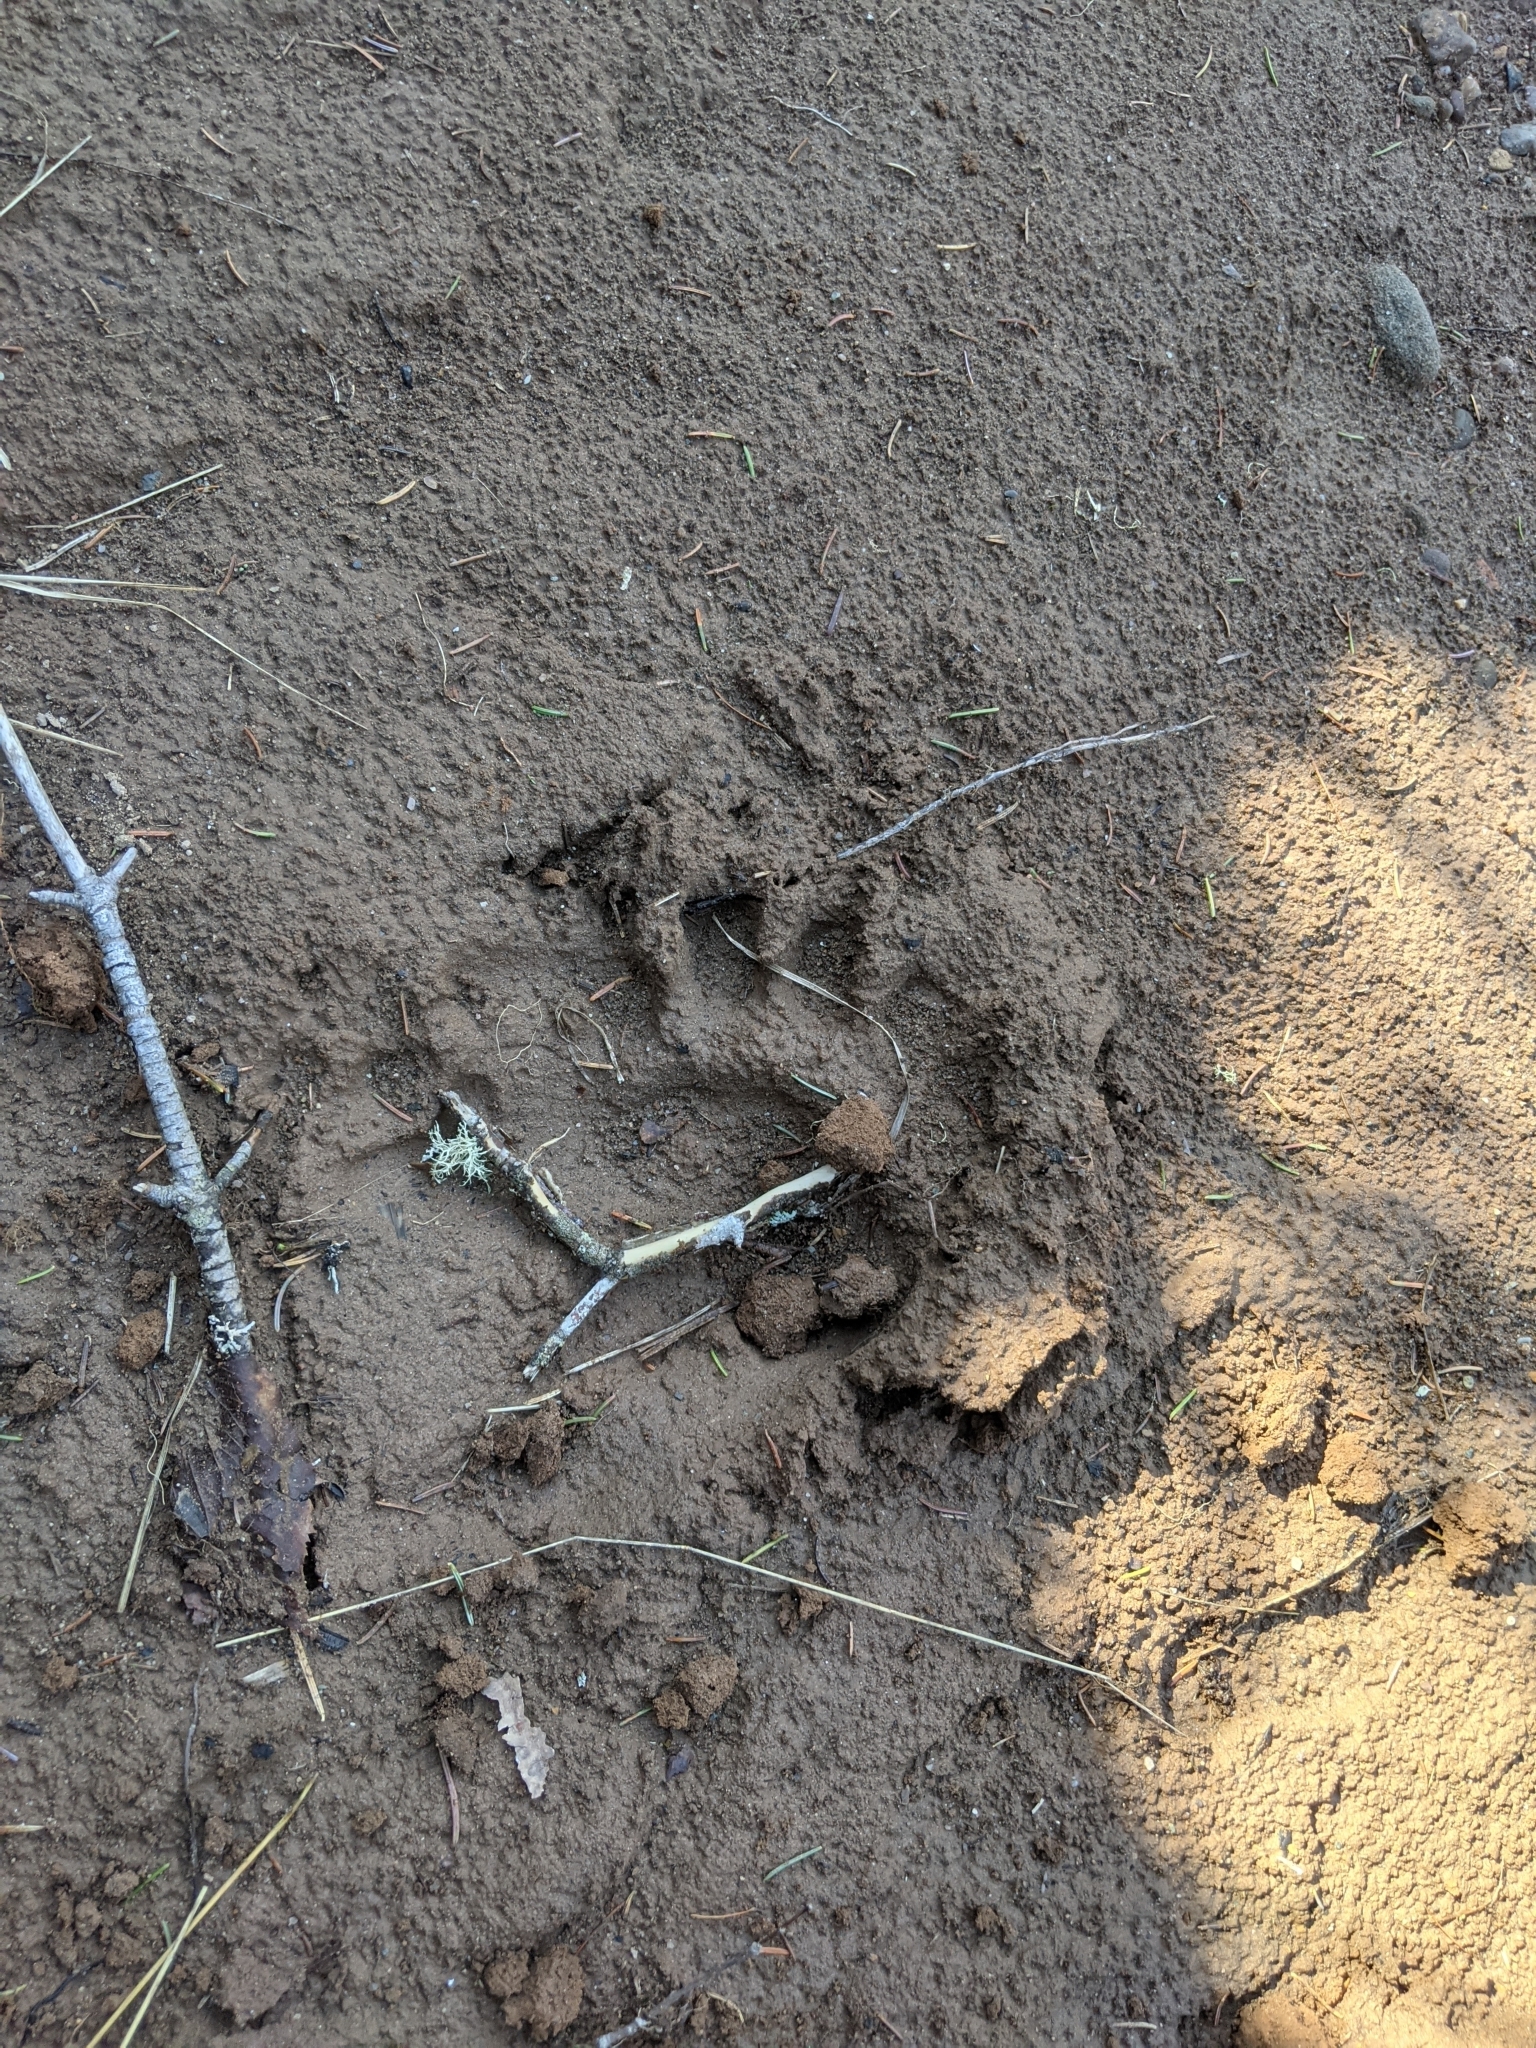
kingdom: Animalia
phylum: Chordata
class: Mammalia
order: Carnivora
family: Ursidae
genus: Ursus
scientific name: Ursus americanus
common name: American black bear
